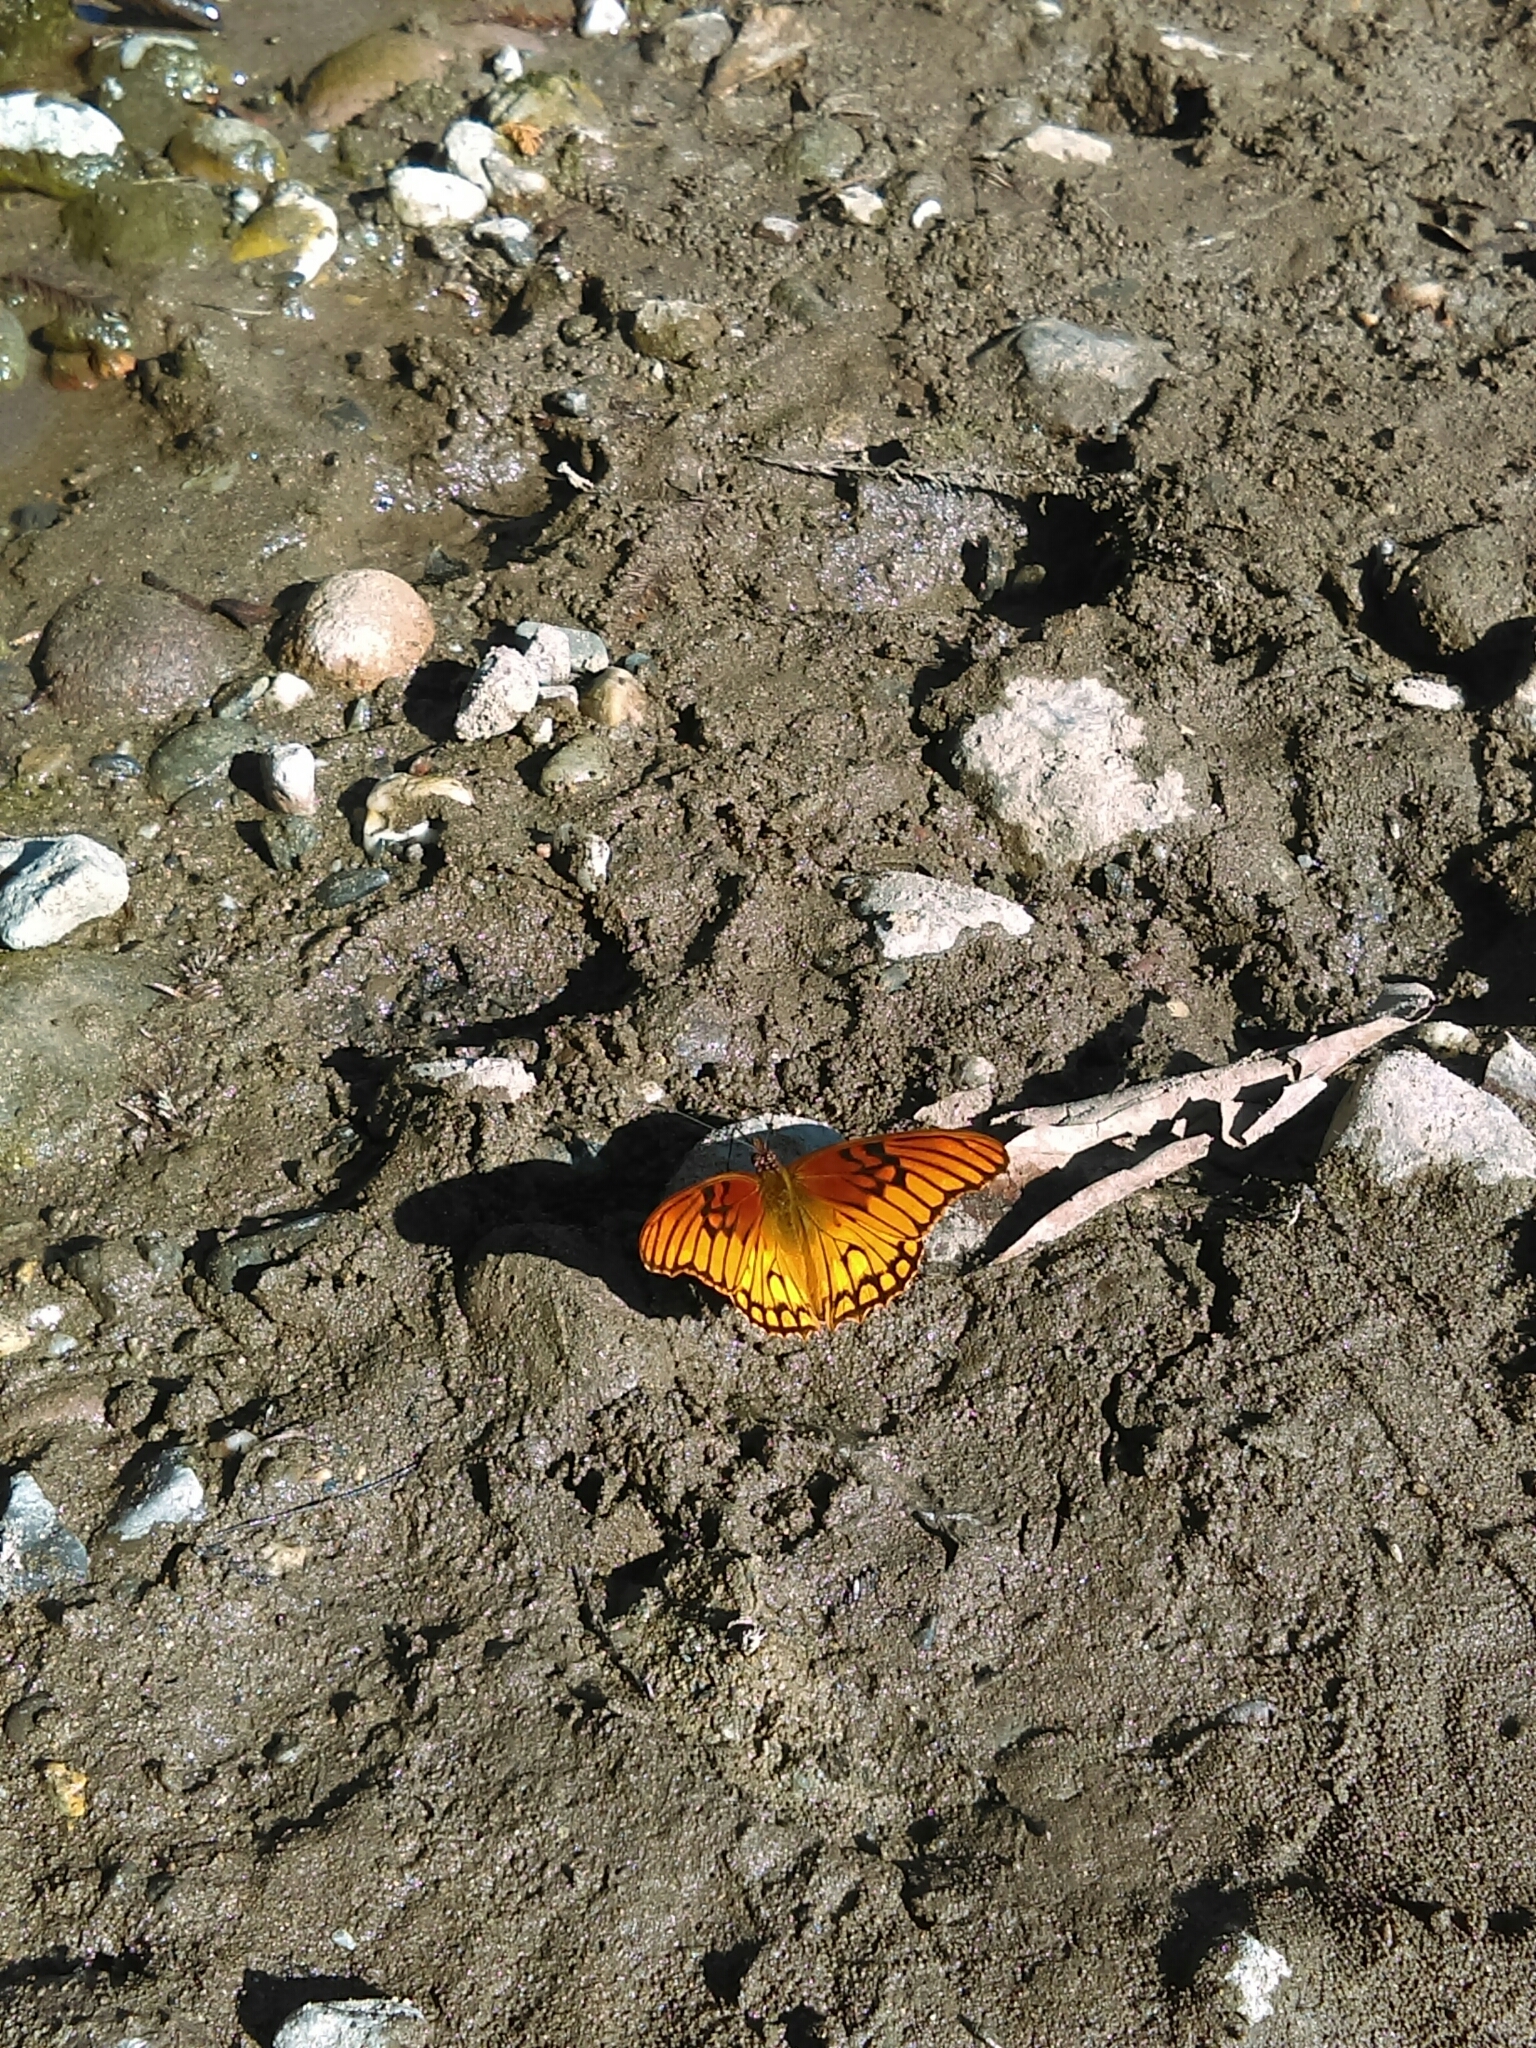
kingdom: Animalia
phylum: Arthropoda
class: Insecta
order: Lepidoptera
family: Nymphalidae
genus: Dione
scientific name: Dione moneta
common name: Mexican silverspot
